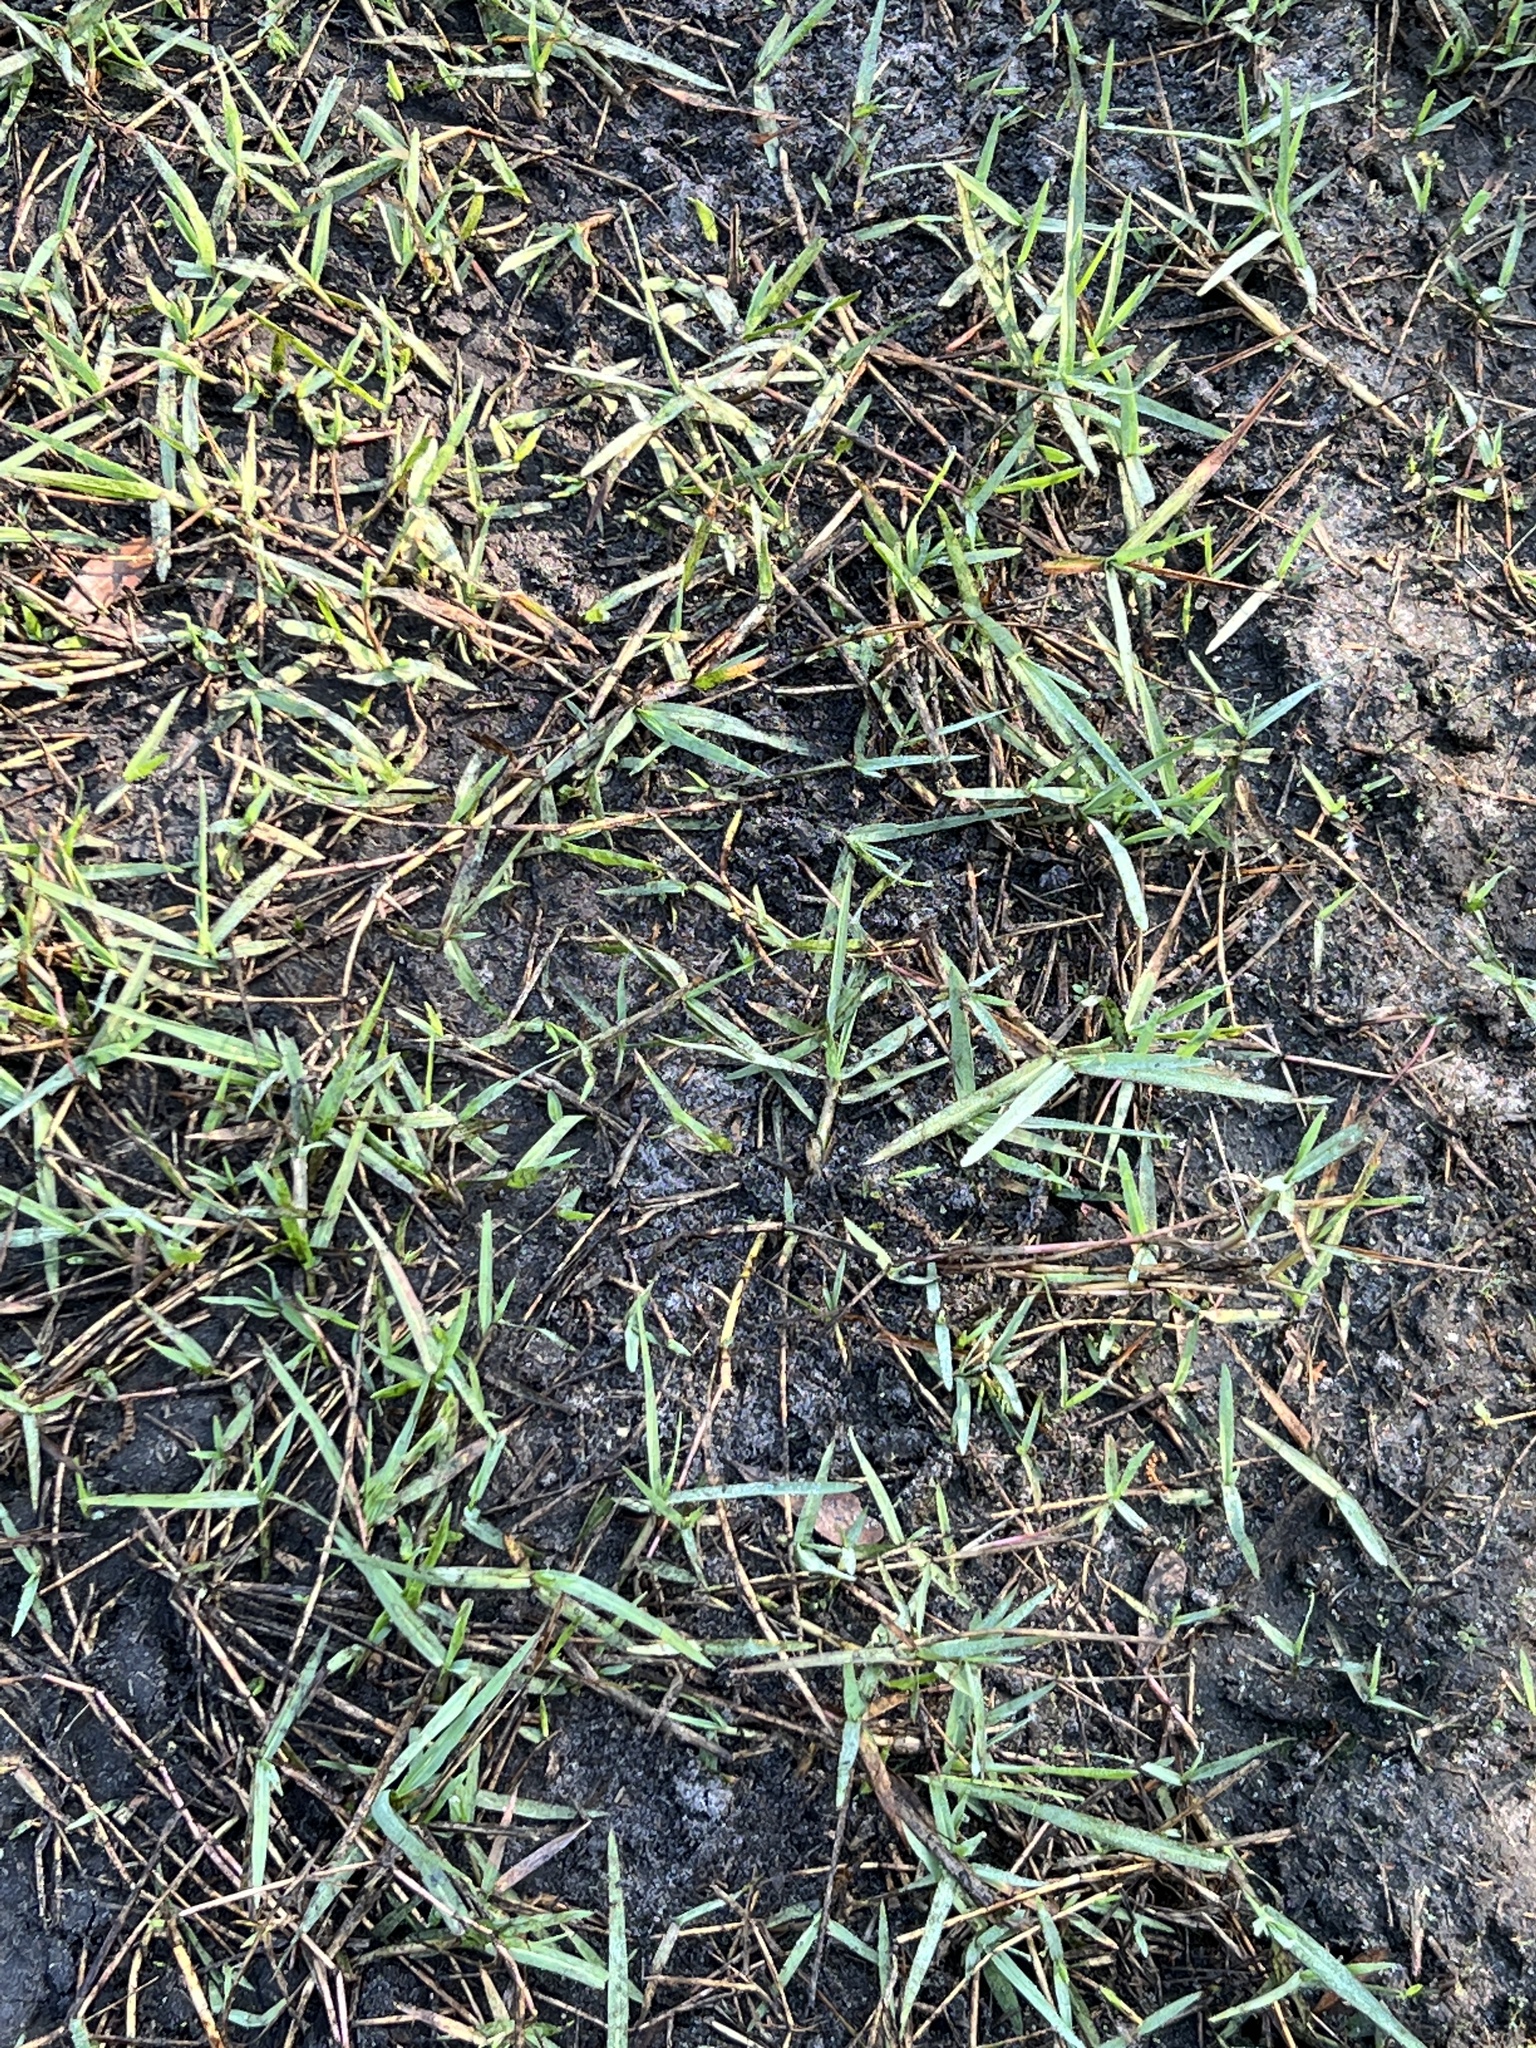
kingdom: Plantae
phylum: Tracheophyta
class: Liliopsida
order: Poales
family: Poaceae
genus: Stenotaphrum
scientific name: Stenotaphrum secundatum
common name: St. augustine grass
